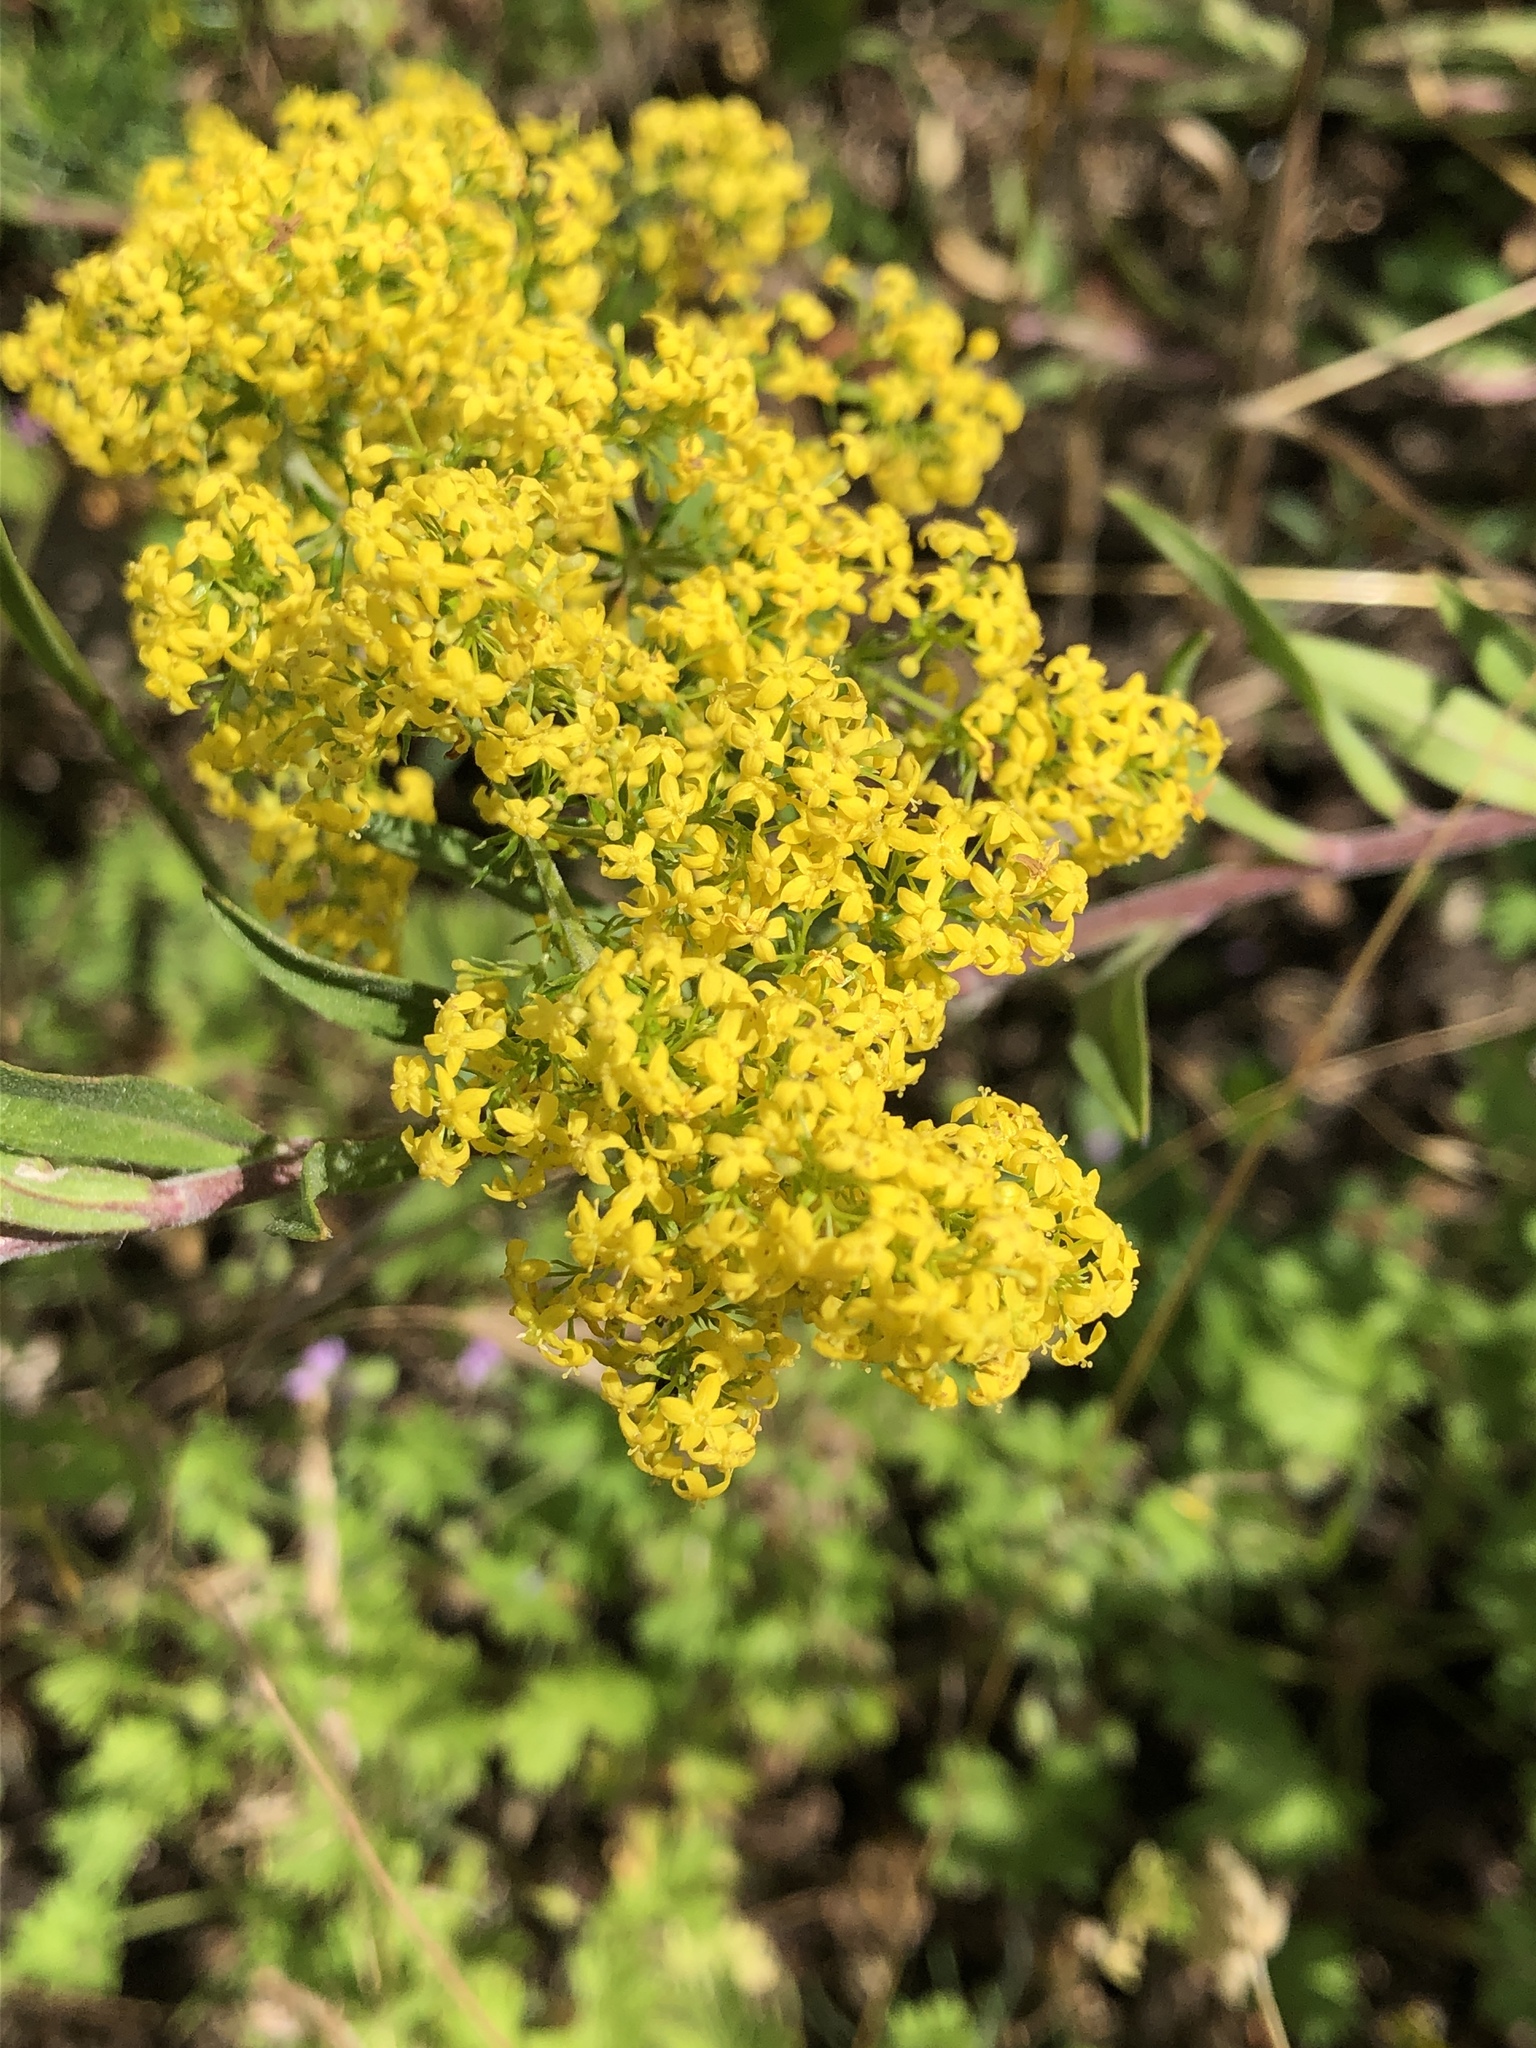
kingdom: Plantae
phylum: Tracheophyta
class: Magnoliopsida
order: Gentianales
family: Rubiaceae
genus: Galium
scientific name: Galium verum
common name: Lady's bedstraw
